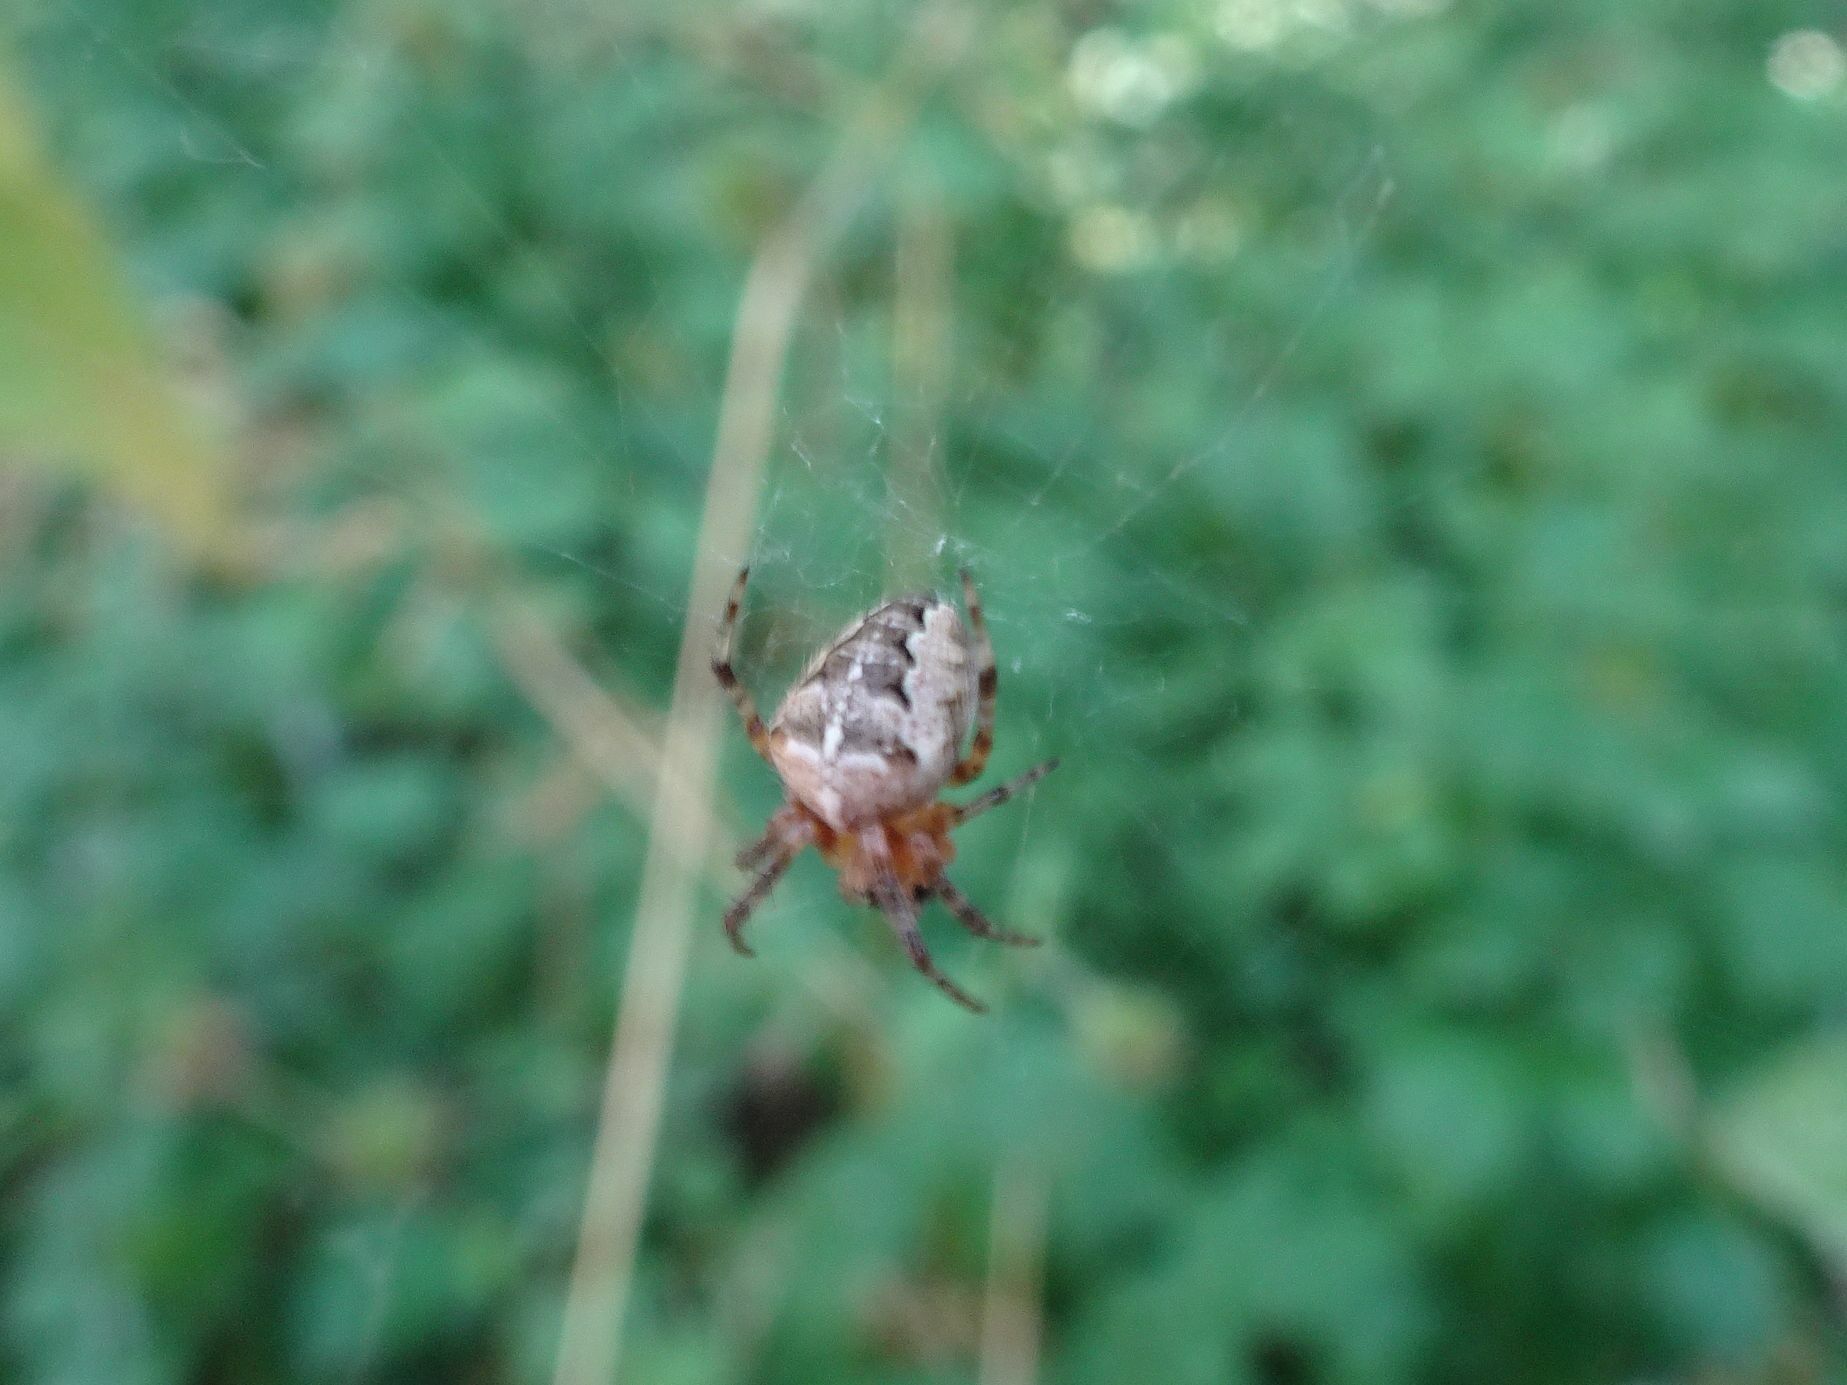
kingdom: Animalia
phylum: Arthropoda
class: Arachnida
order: Araneae
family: Araneidae
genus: Araneus
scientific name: Araneus diadematus
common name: Cross orbweaver
